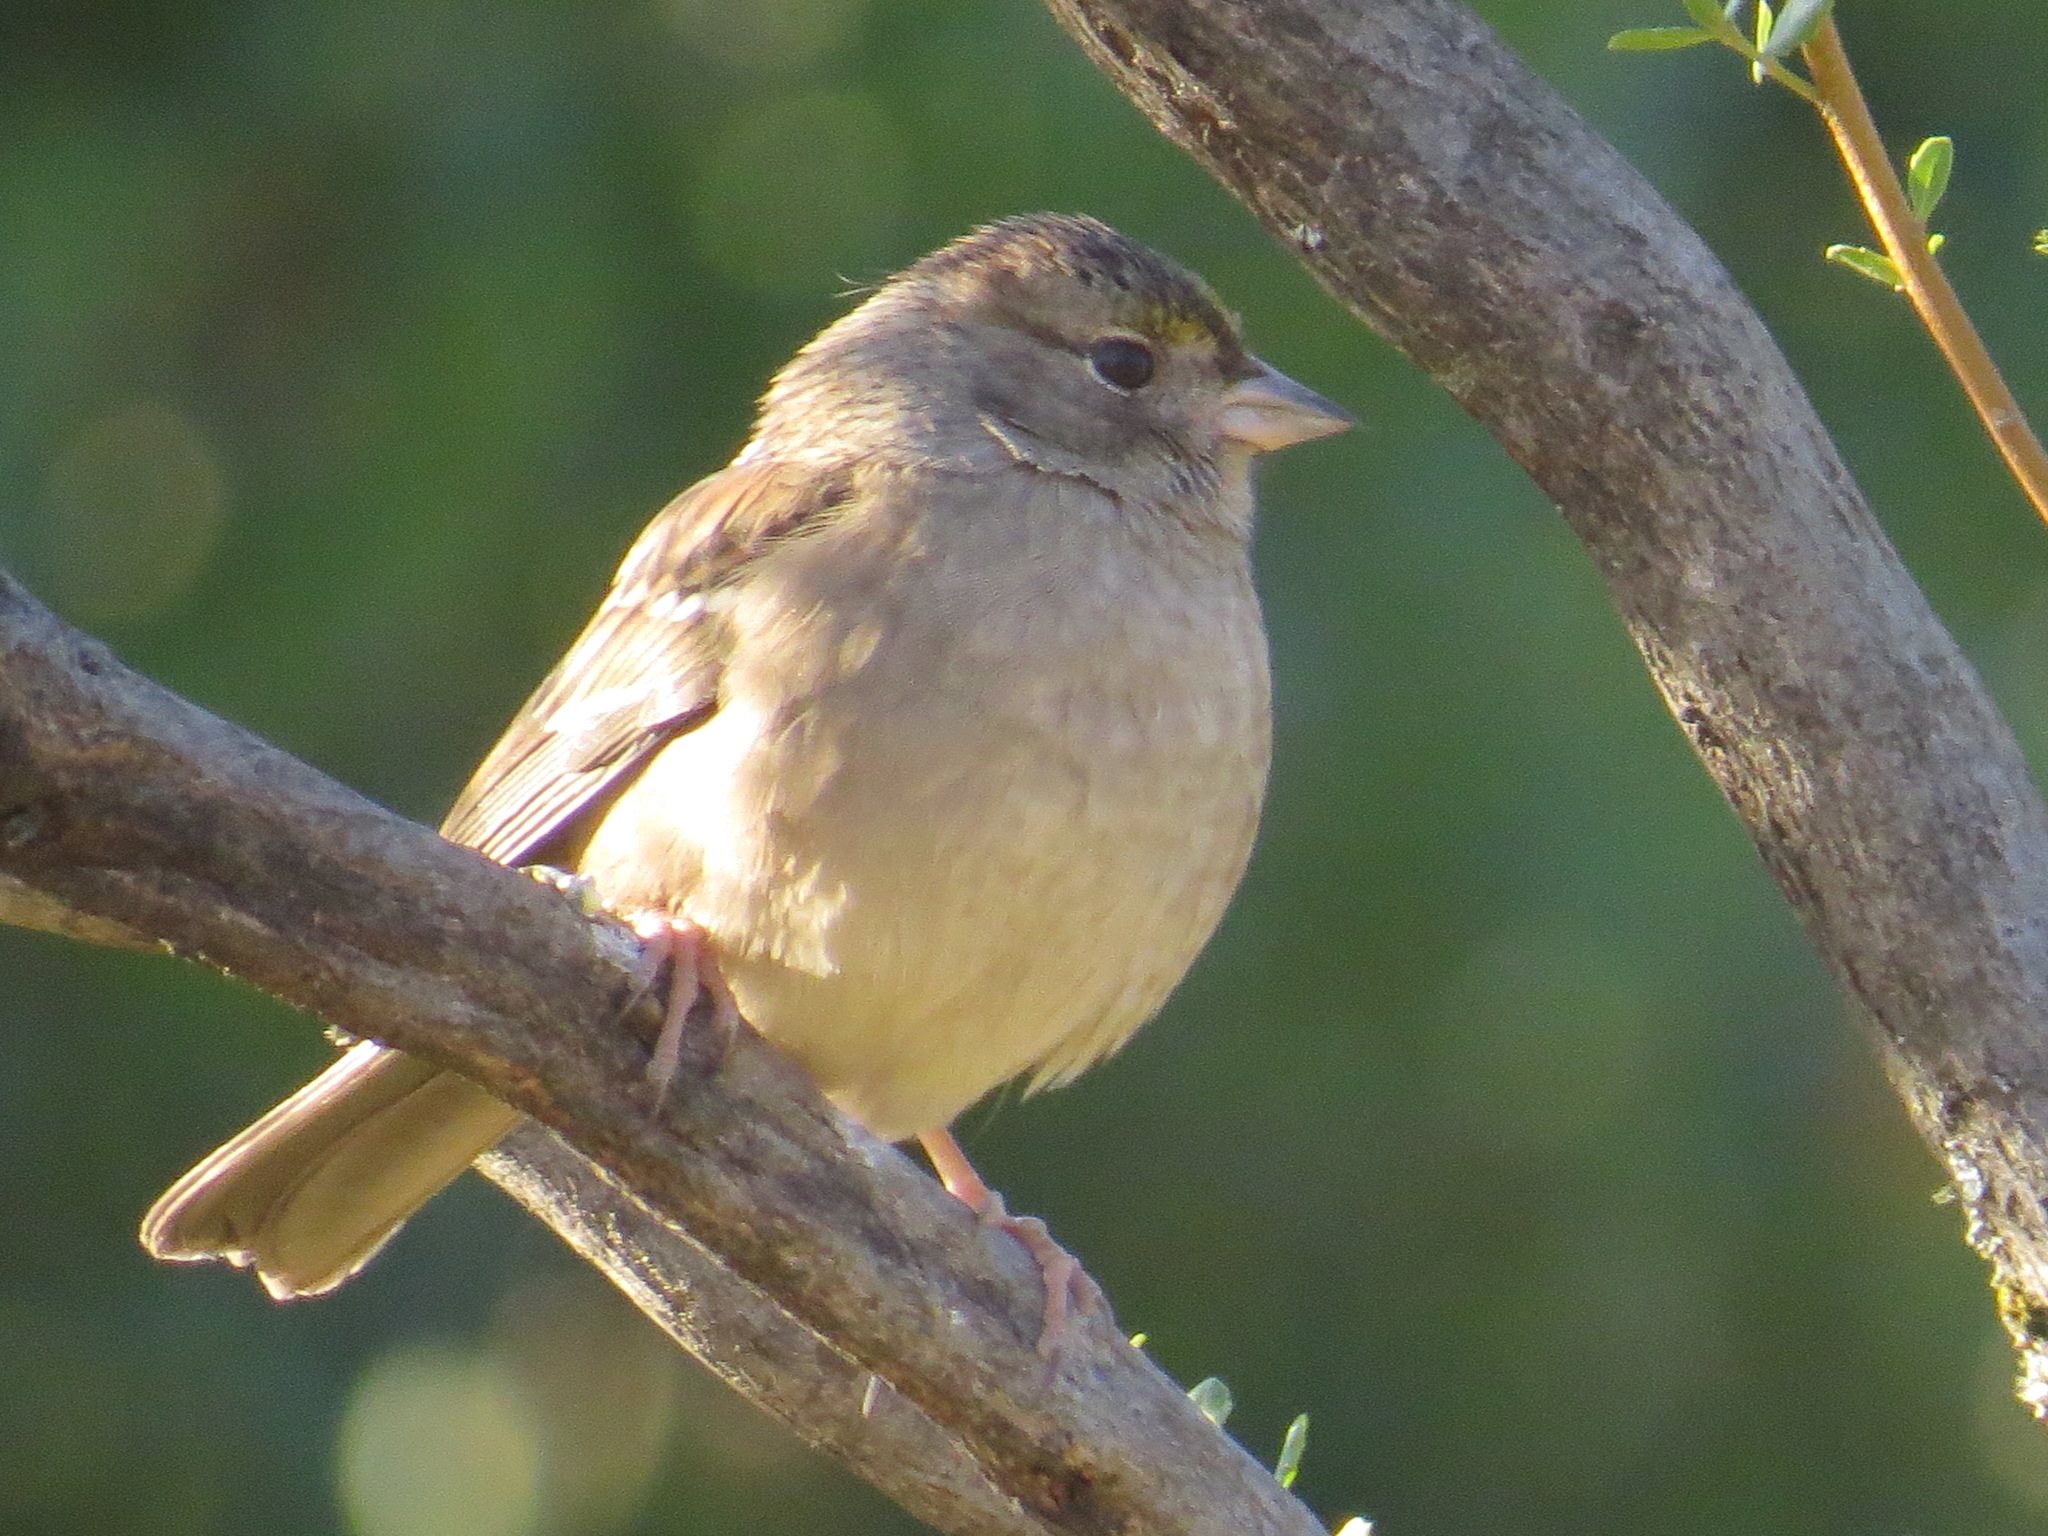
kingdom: Animalia
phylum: Chordata
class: Aves
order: Passeriformes
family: Passerellidae
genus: Zonotrichia
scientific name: Zonotrichia atricapilla
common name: Golden-crowned sparrow
